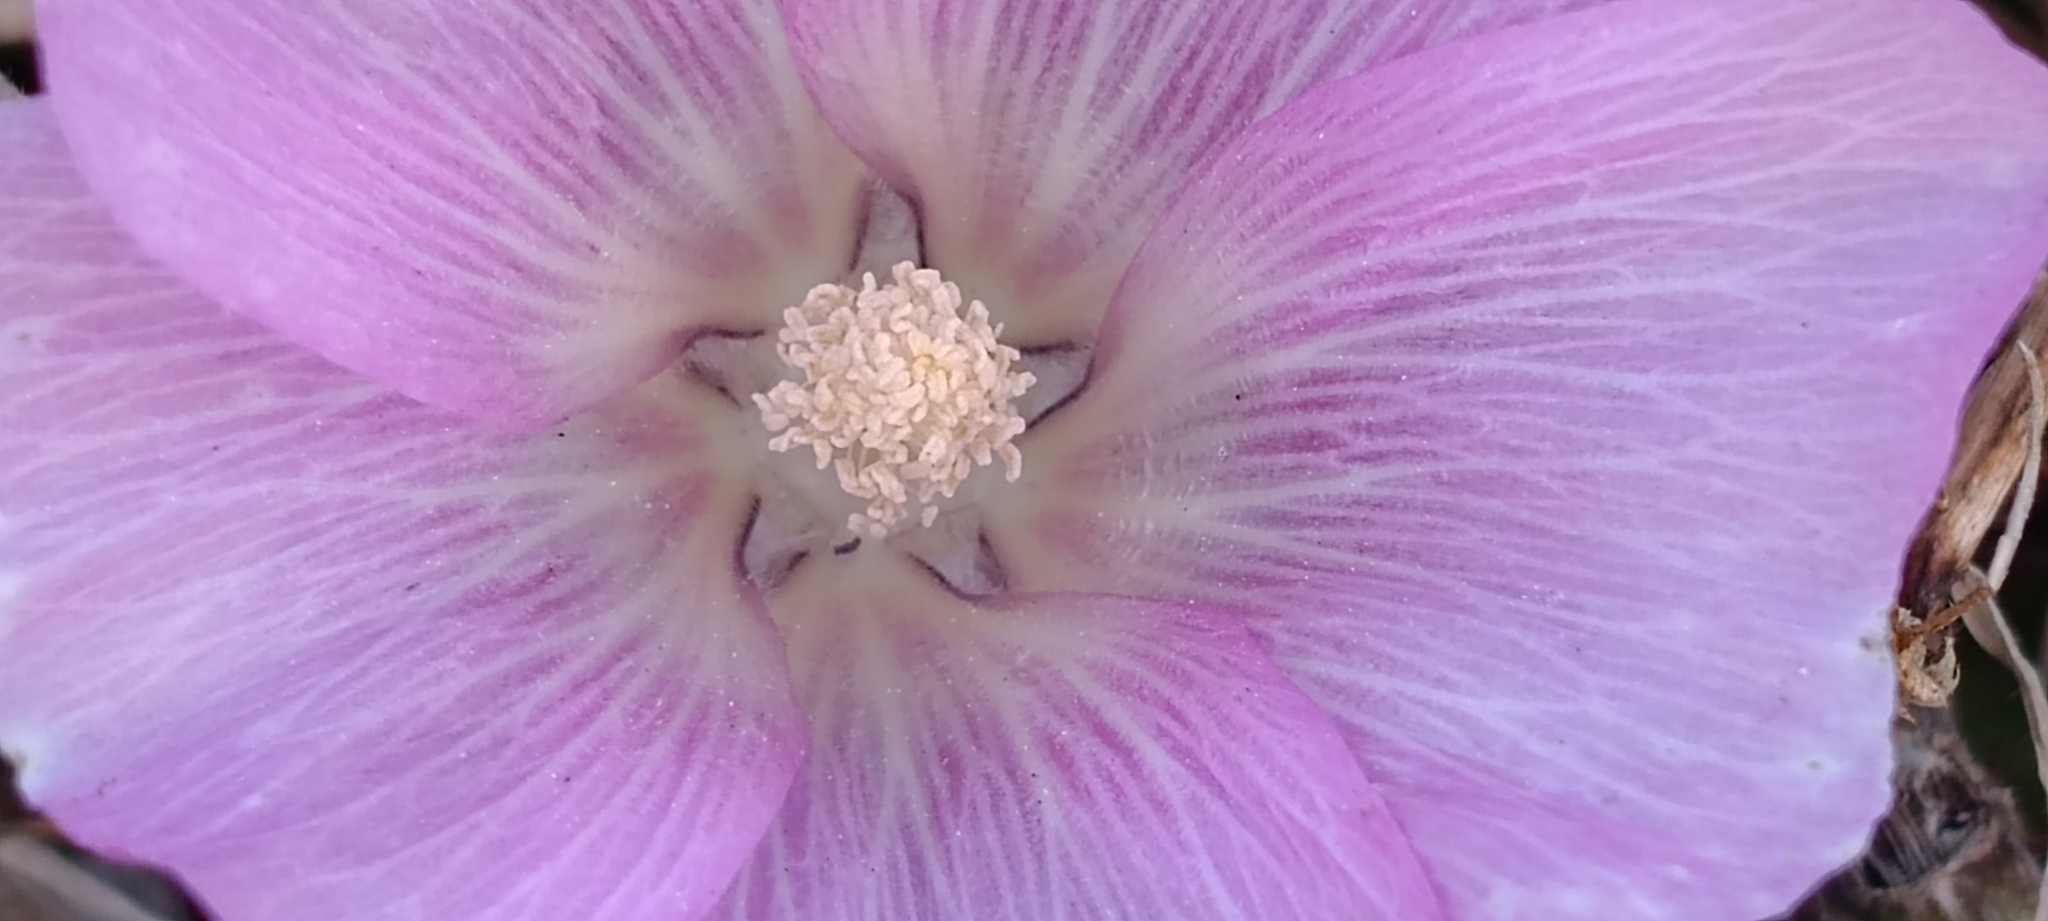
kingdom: Plantae
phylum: Tracheophyta
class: Magnoliopsida
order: Malvales
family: Malvaceae
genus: Alcea
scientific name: Alcea acaulis
